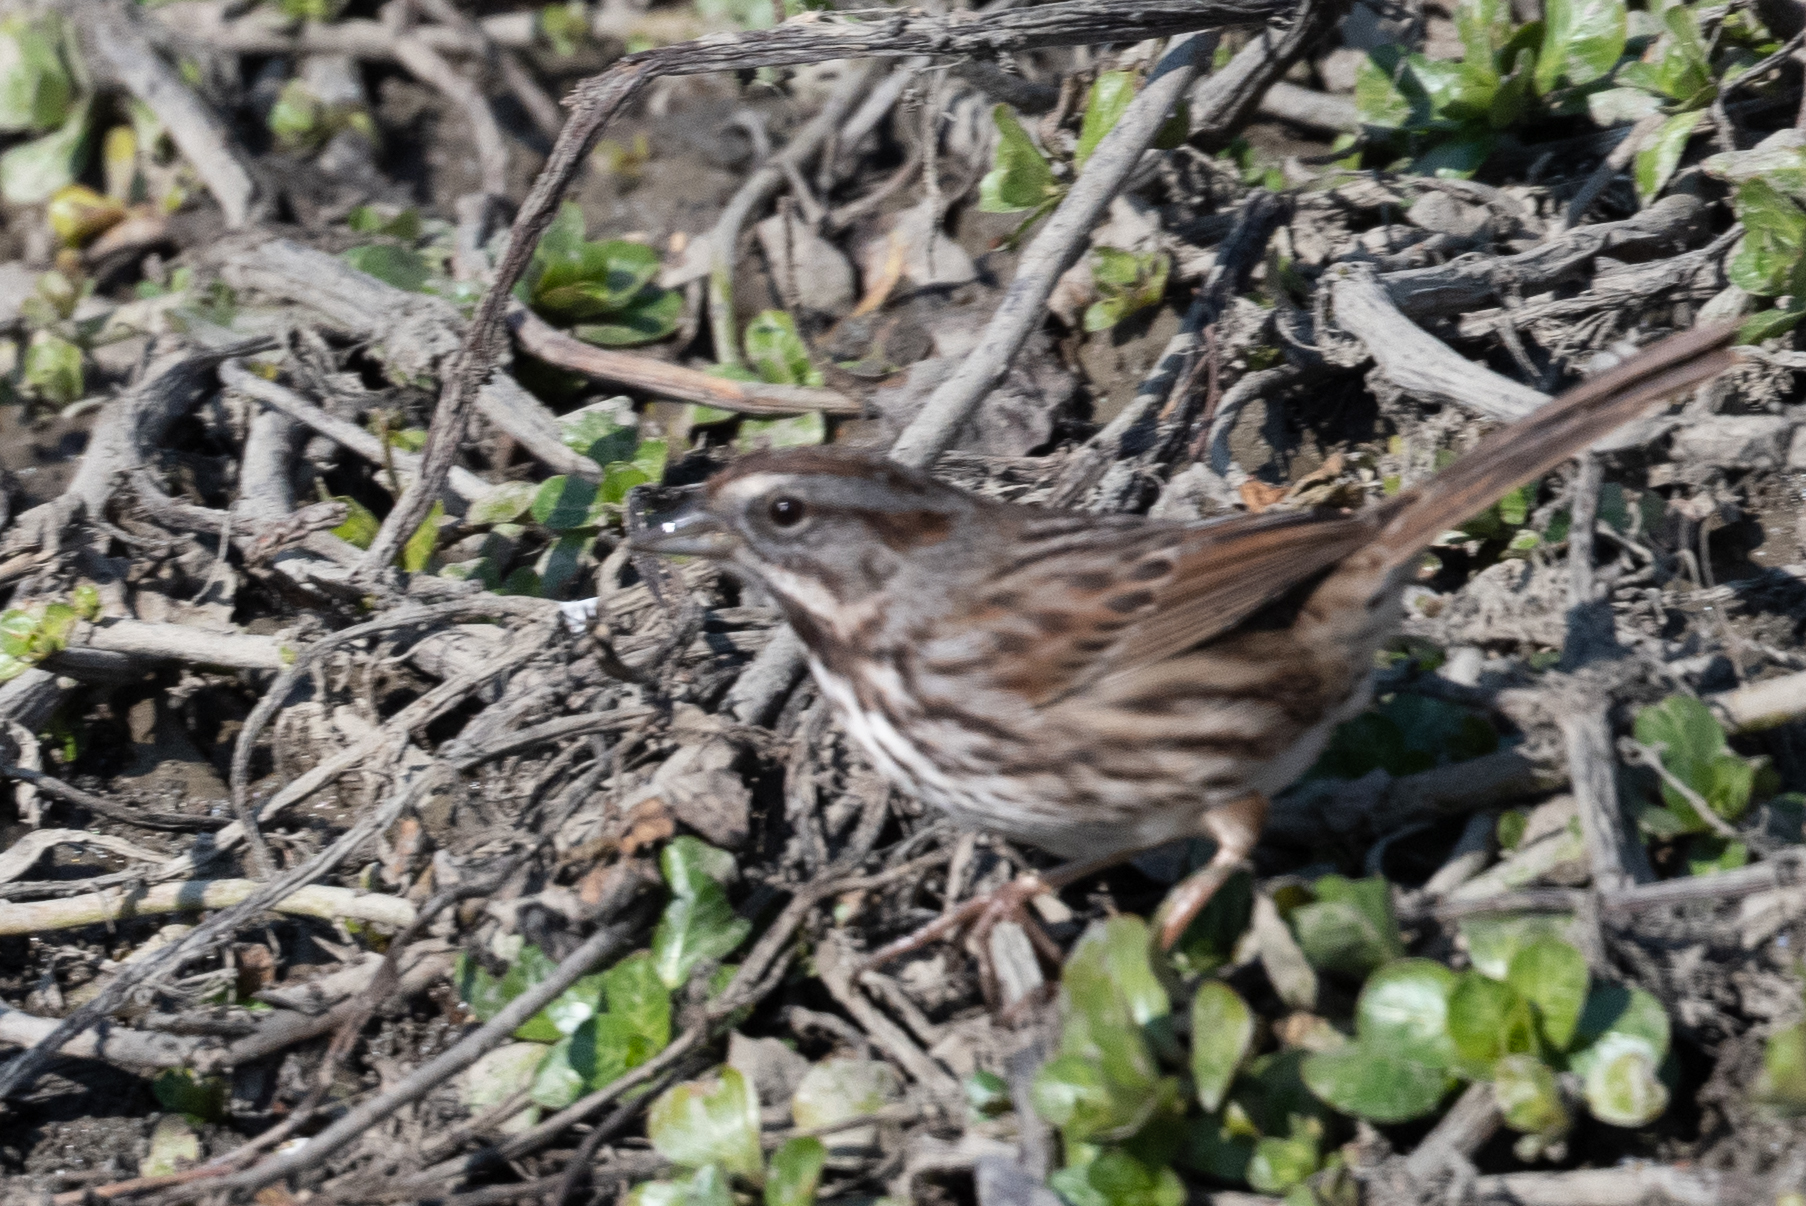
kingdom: Animalia
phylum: Chordata
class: Aves
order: Passeriformes
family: Passerellidae
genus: Melospiza
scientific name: Melospiza melodia
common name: Song sparrow
